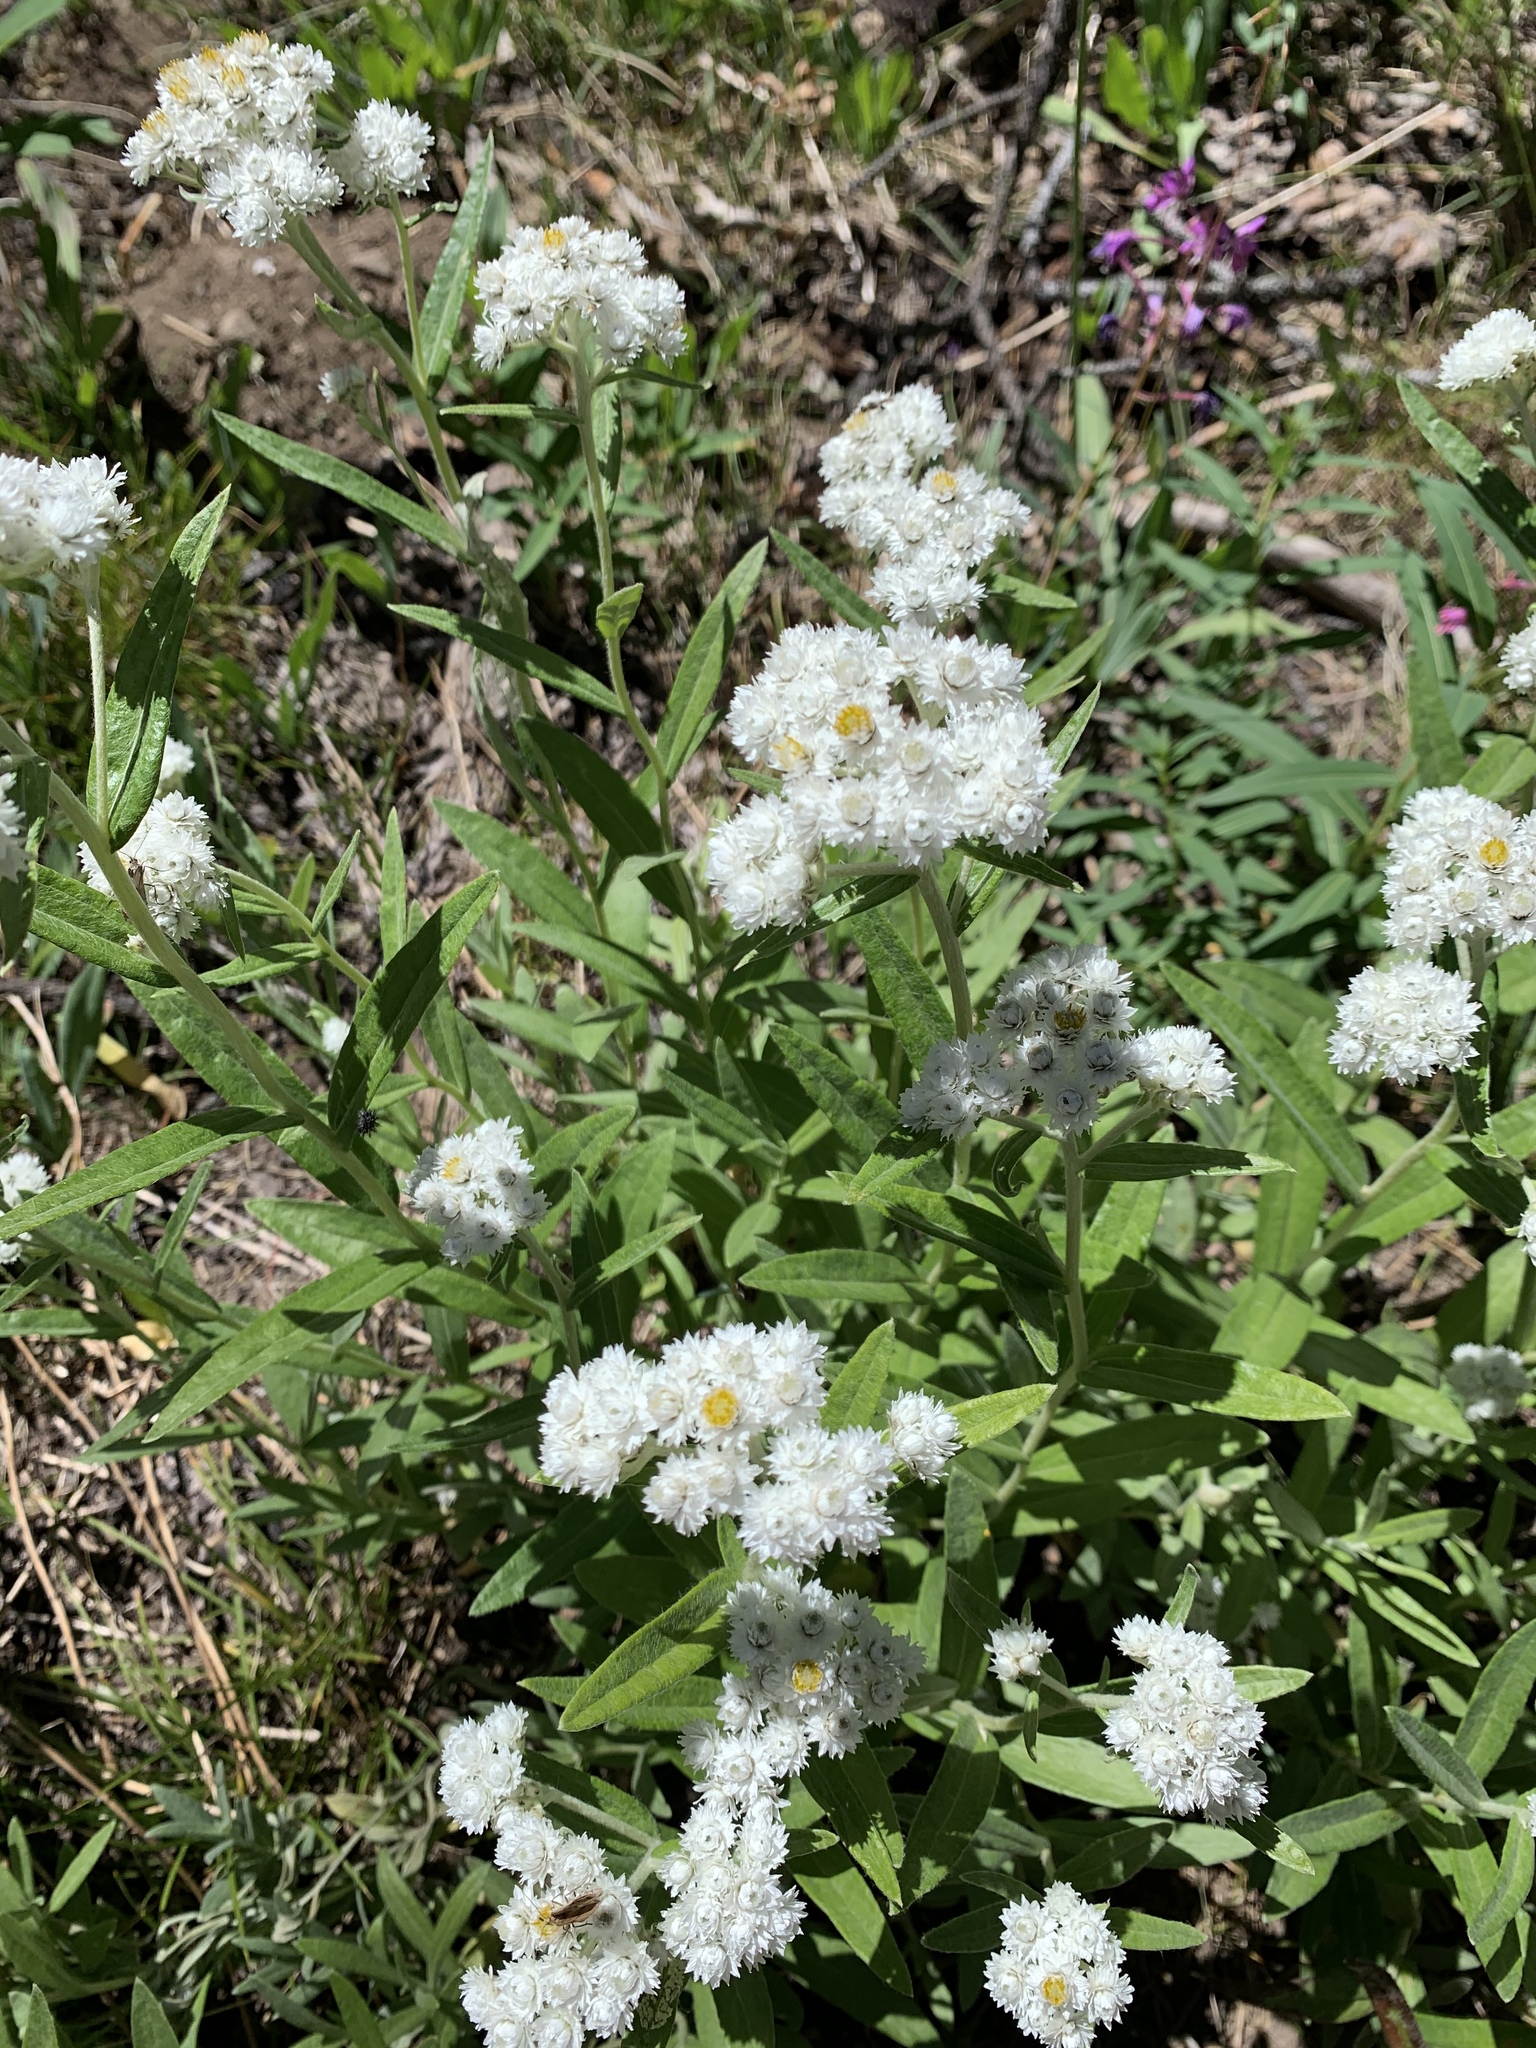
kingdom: Plantae
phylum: Tracheophyta
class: Magnoliopsida
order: Asterales
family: Asteraceae
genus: Anaphalis
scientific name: Anaphalis margaritacea
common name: Pearly everlasting
